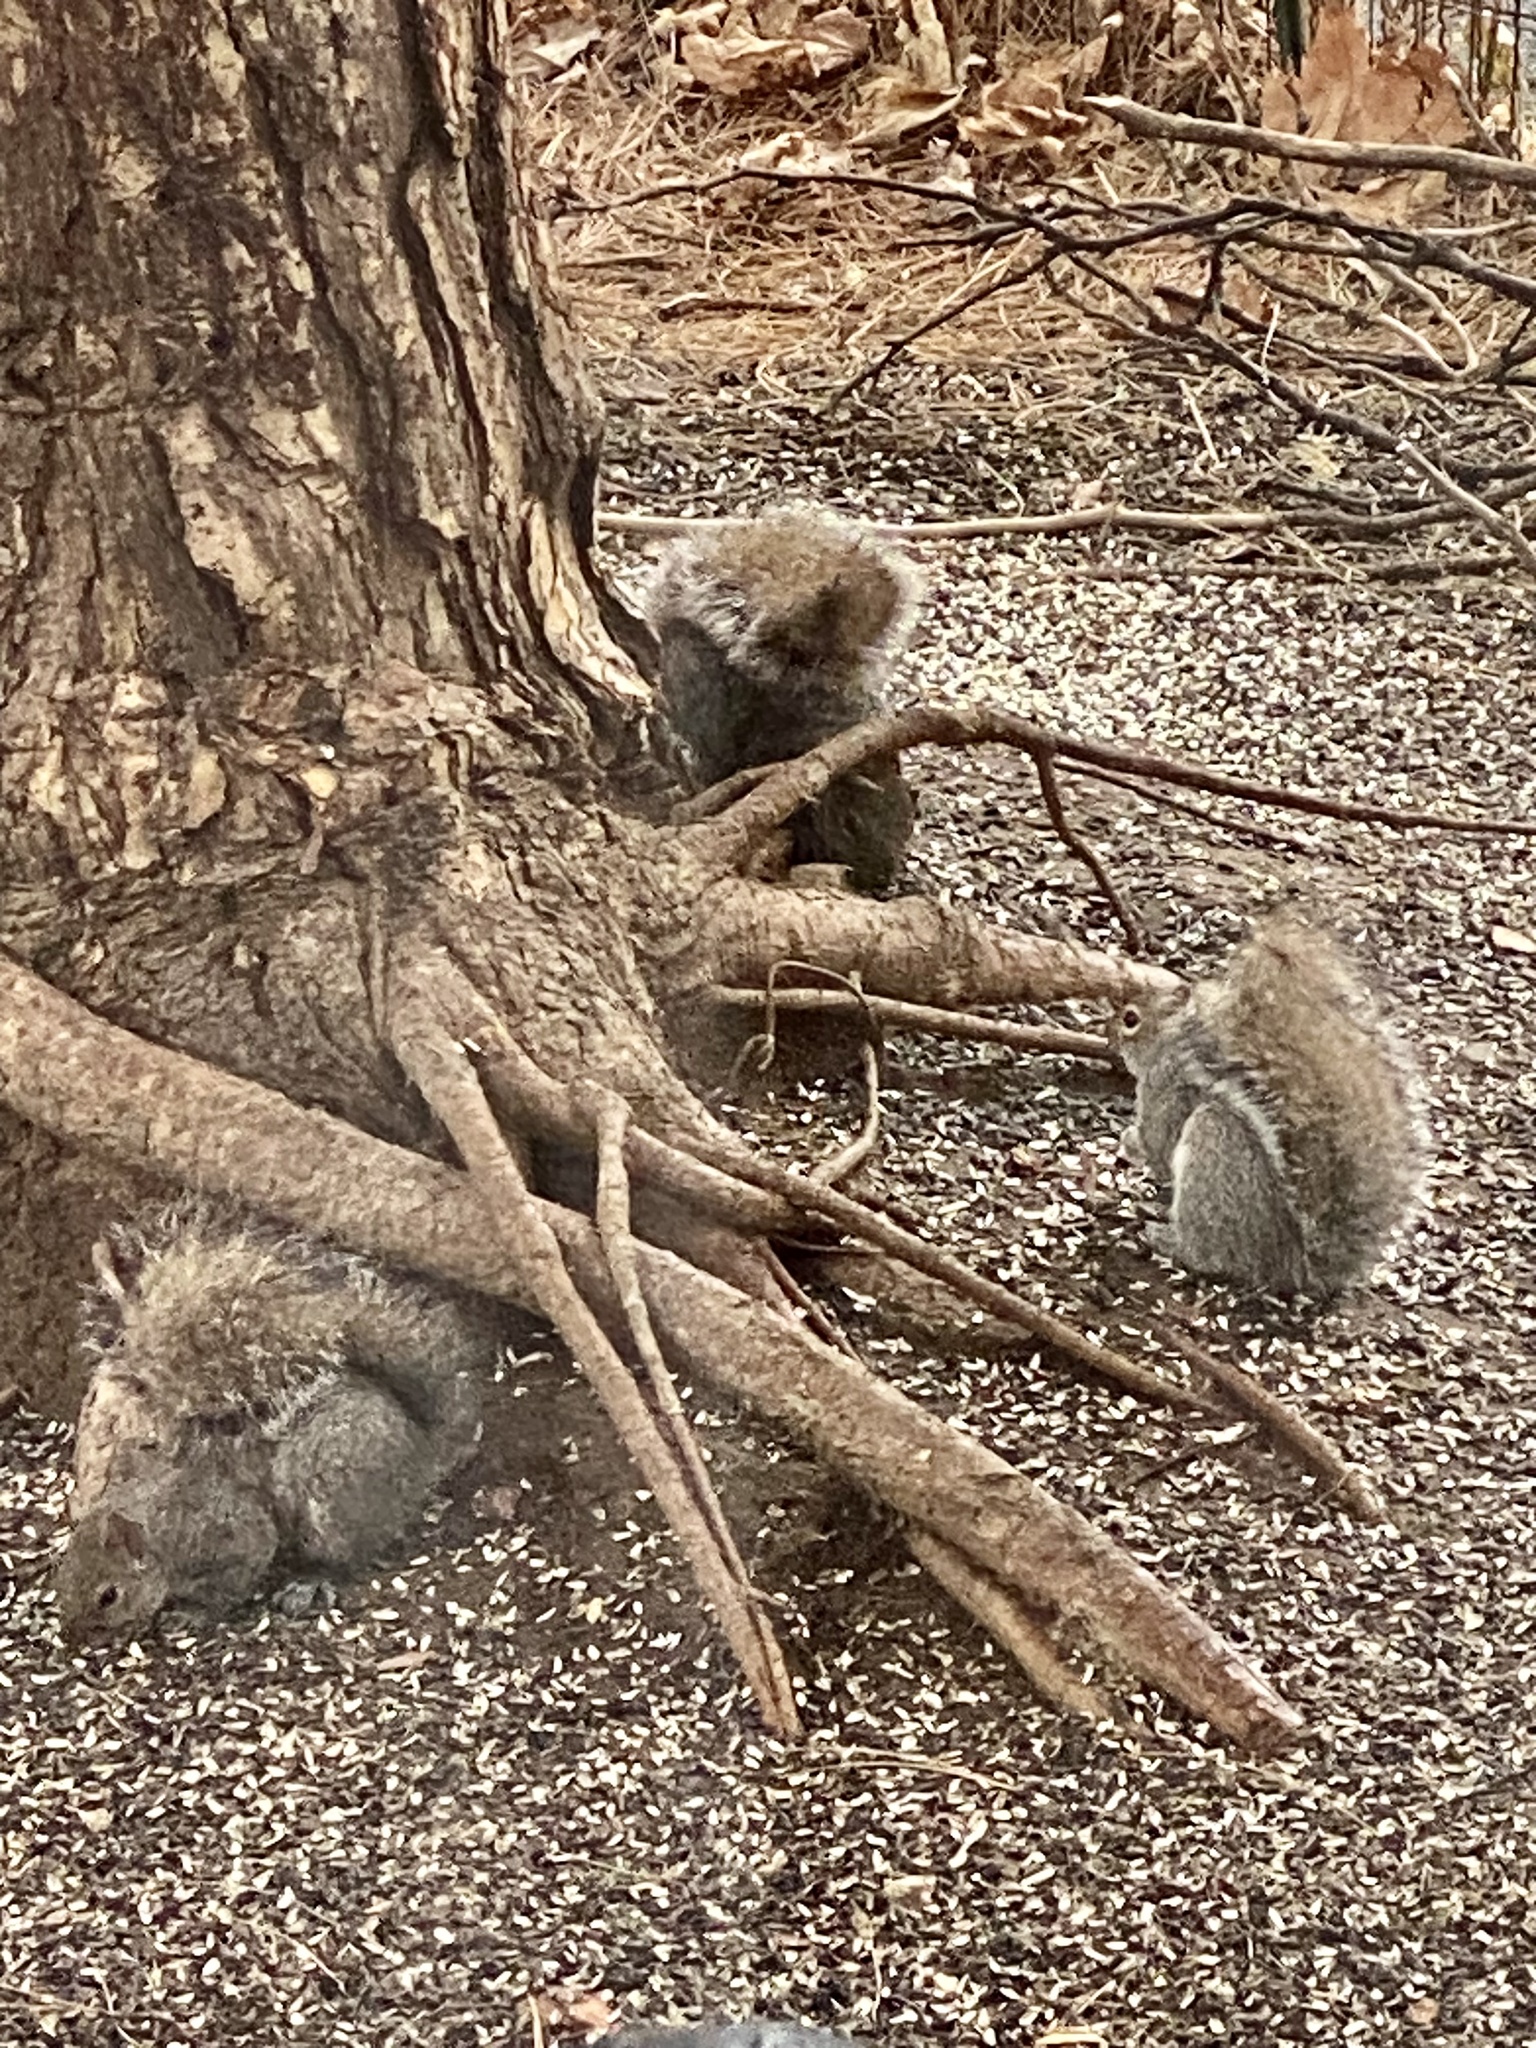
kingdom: Animalia
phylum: Chordata
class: Mammalia
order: Rodentia
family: Sciuridae
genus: Sciurus
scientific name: Sciurus carolinensis
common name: Eastern gray squirrel
